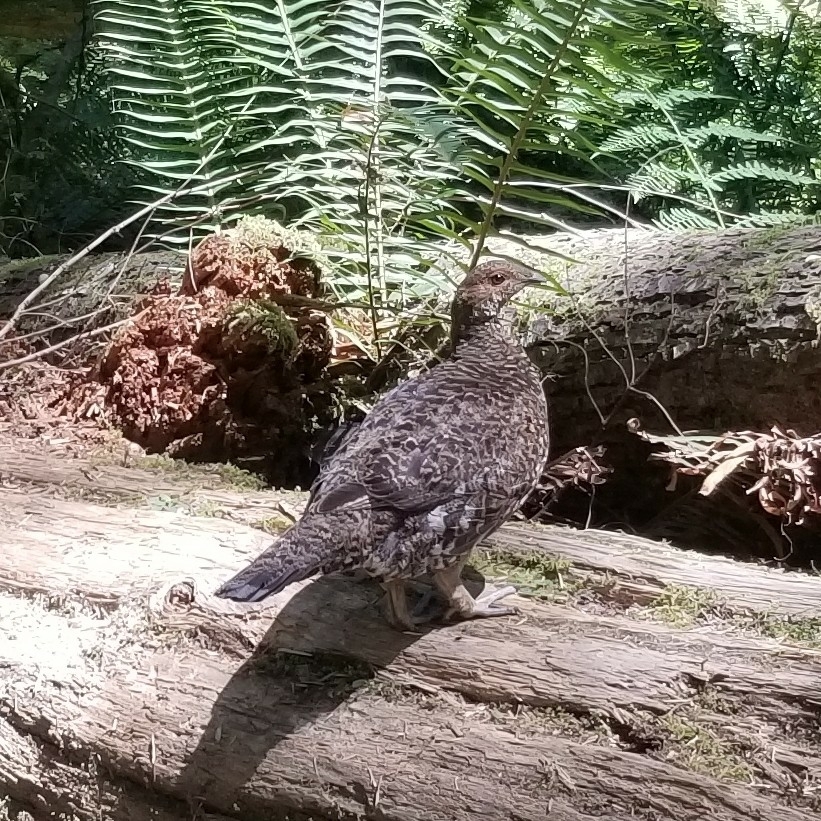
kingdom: Animalia
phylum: Chordata
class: Aves
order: Galliformes
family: Phasianidae
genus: Dendragapus
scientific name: Dendragapus fuliginosus
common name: Sooty grouse
